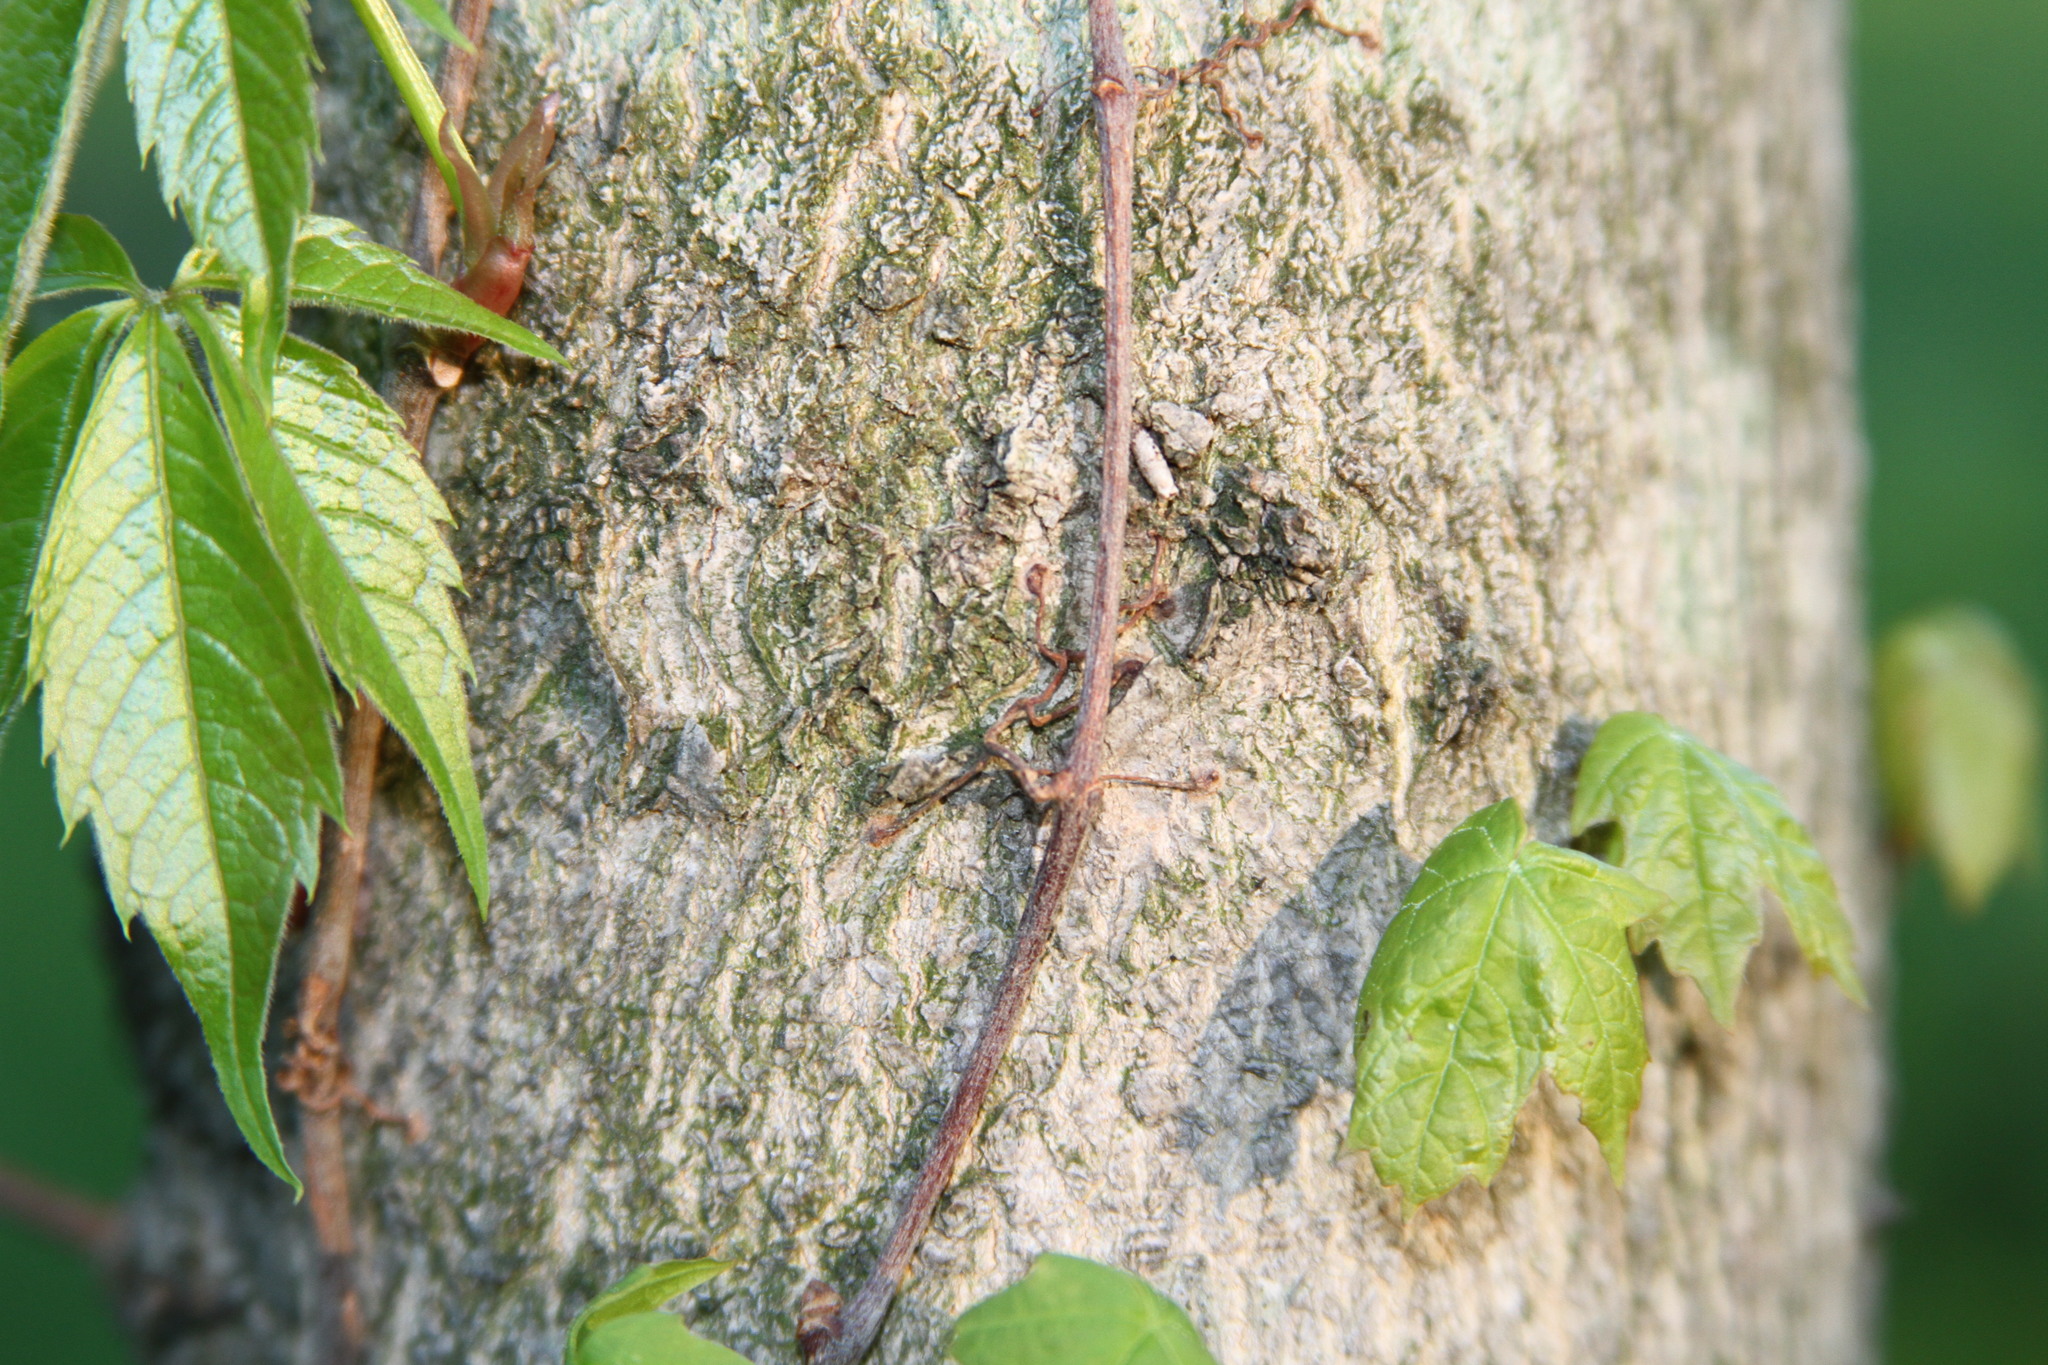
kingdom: Plantae
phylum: Tracheophyta
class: Magnoliopsida
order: Vitales
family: Vitaceae
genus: Parthenocissus
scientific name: Parthenocissus quinquefolia
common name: Virginia-creeper
